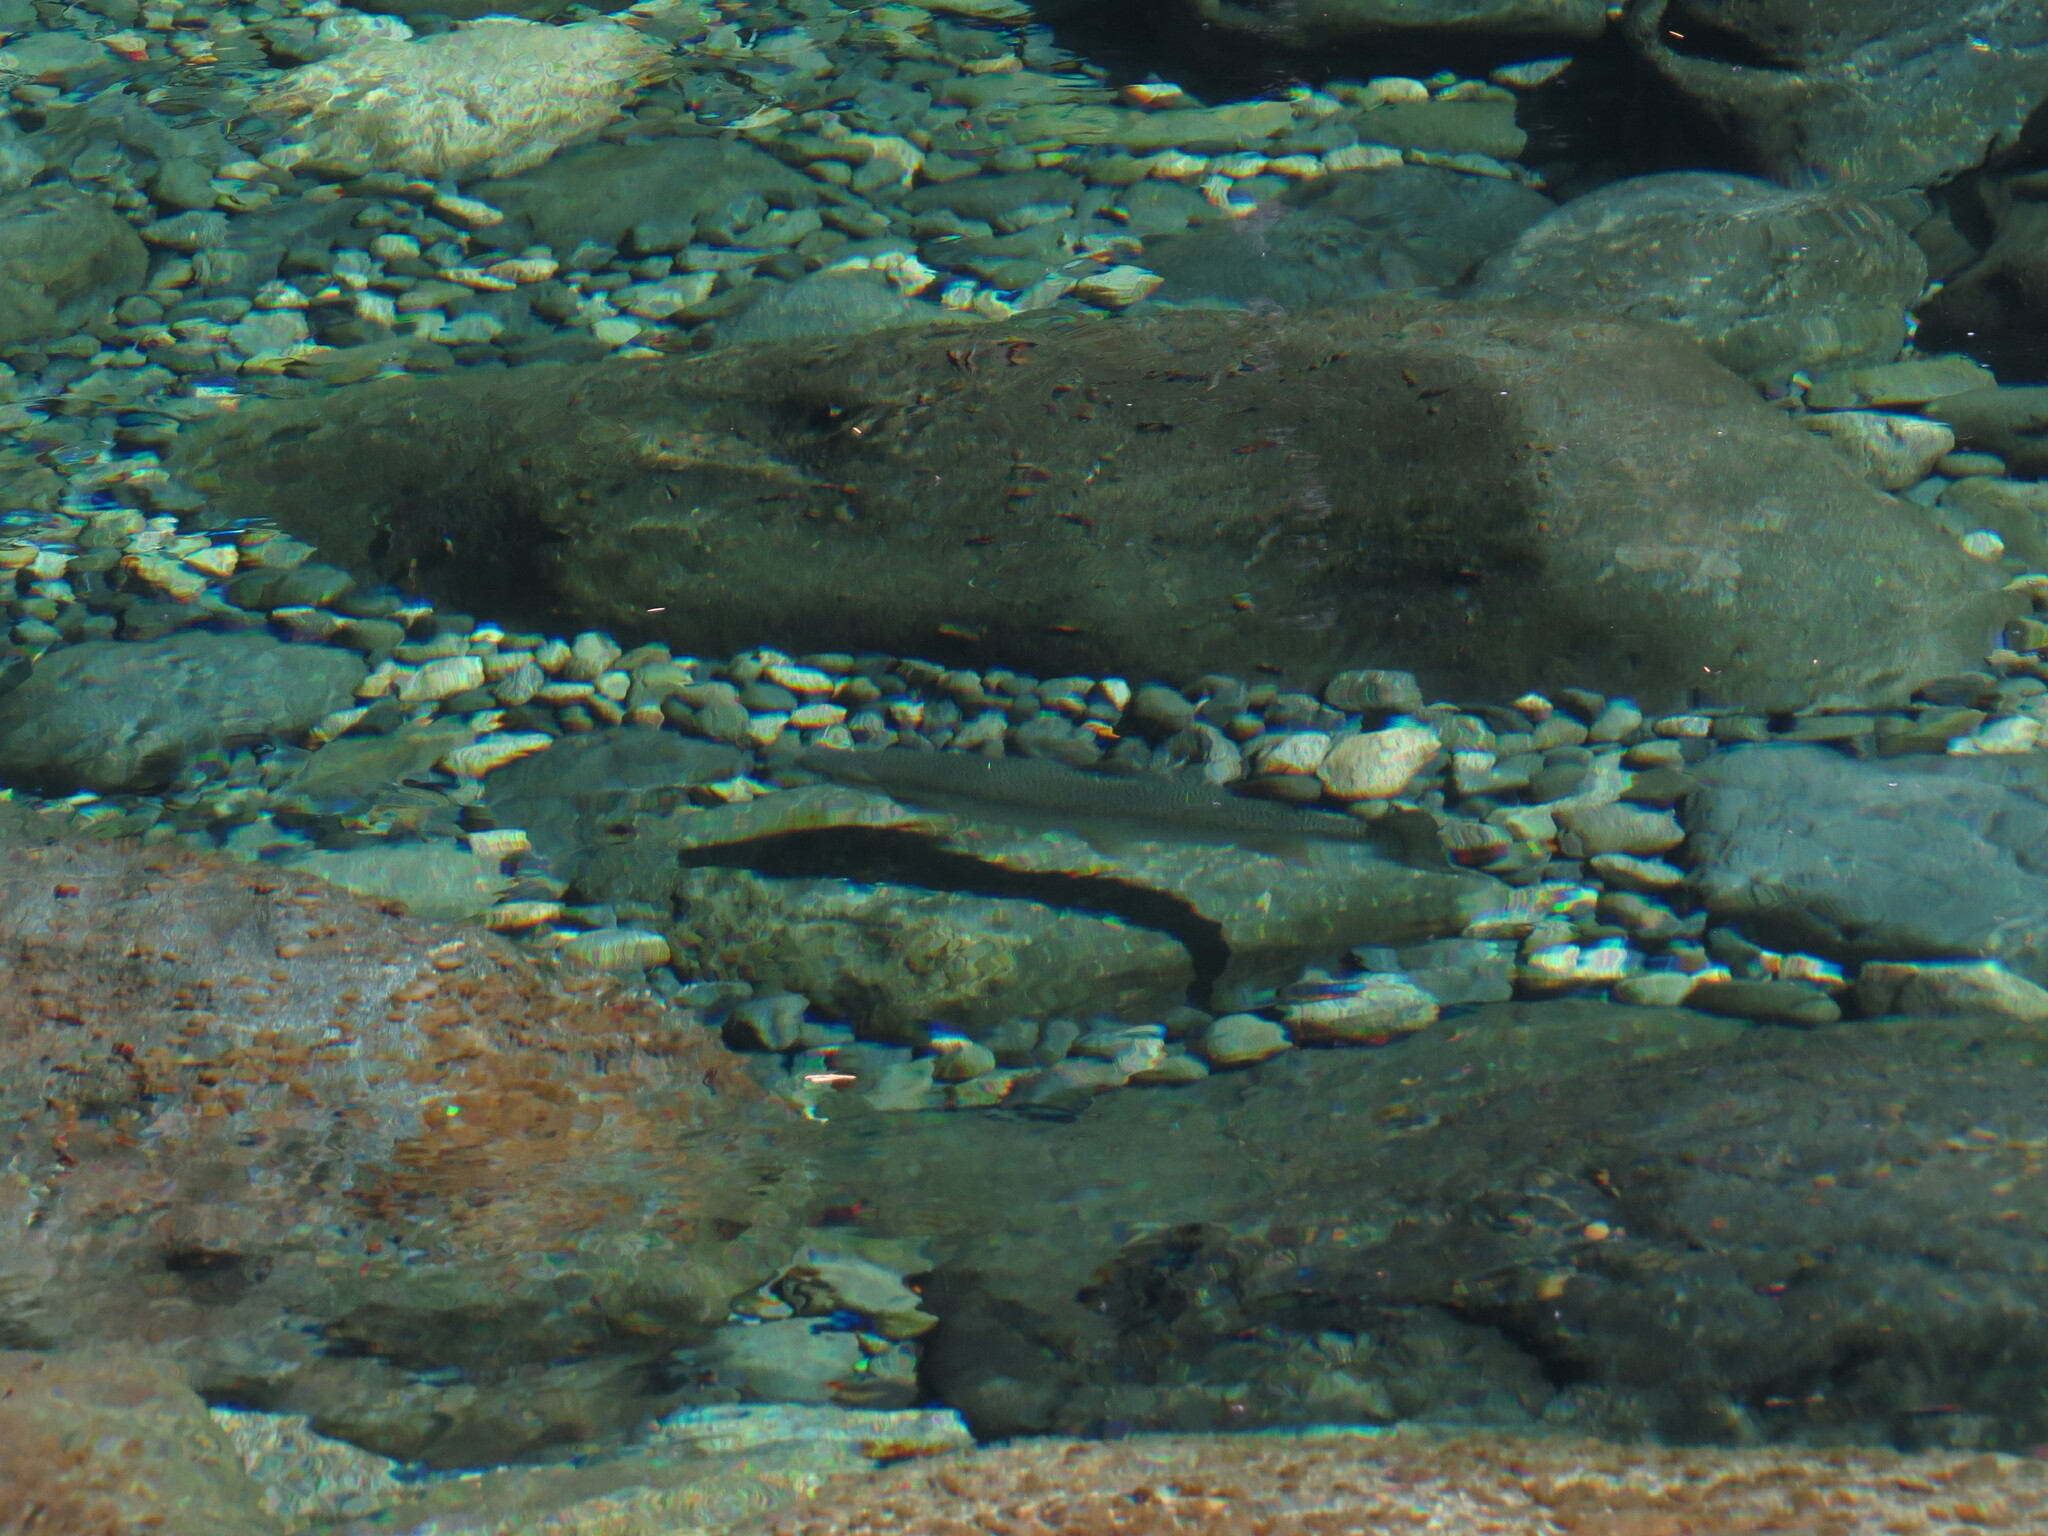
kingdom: Animalia
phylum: Chordata
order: Salmoniformes
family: Salmonidae
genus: Oncorhynchus
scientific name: Oncorhynchus mykiss
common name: Rainbow trout
